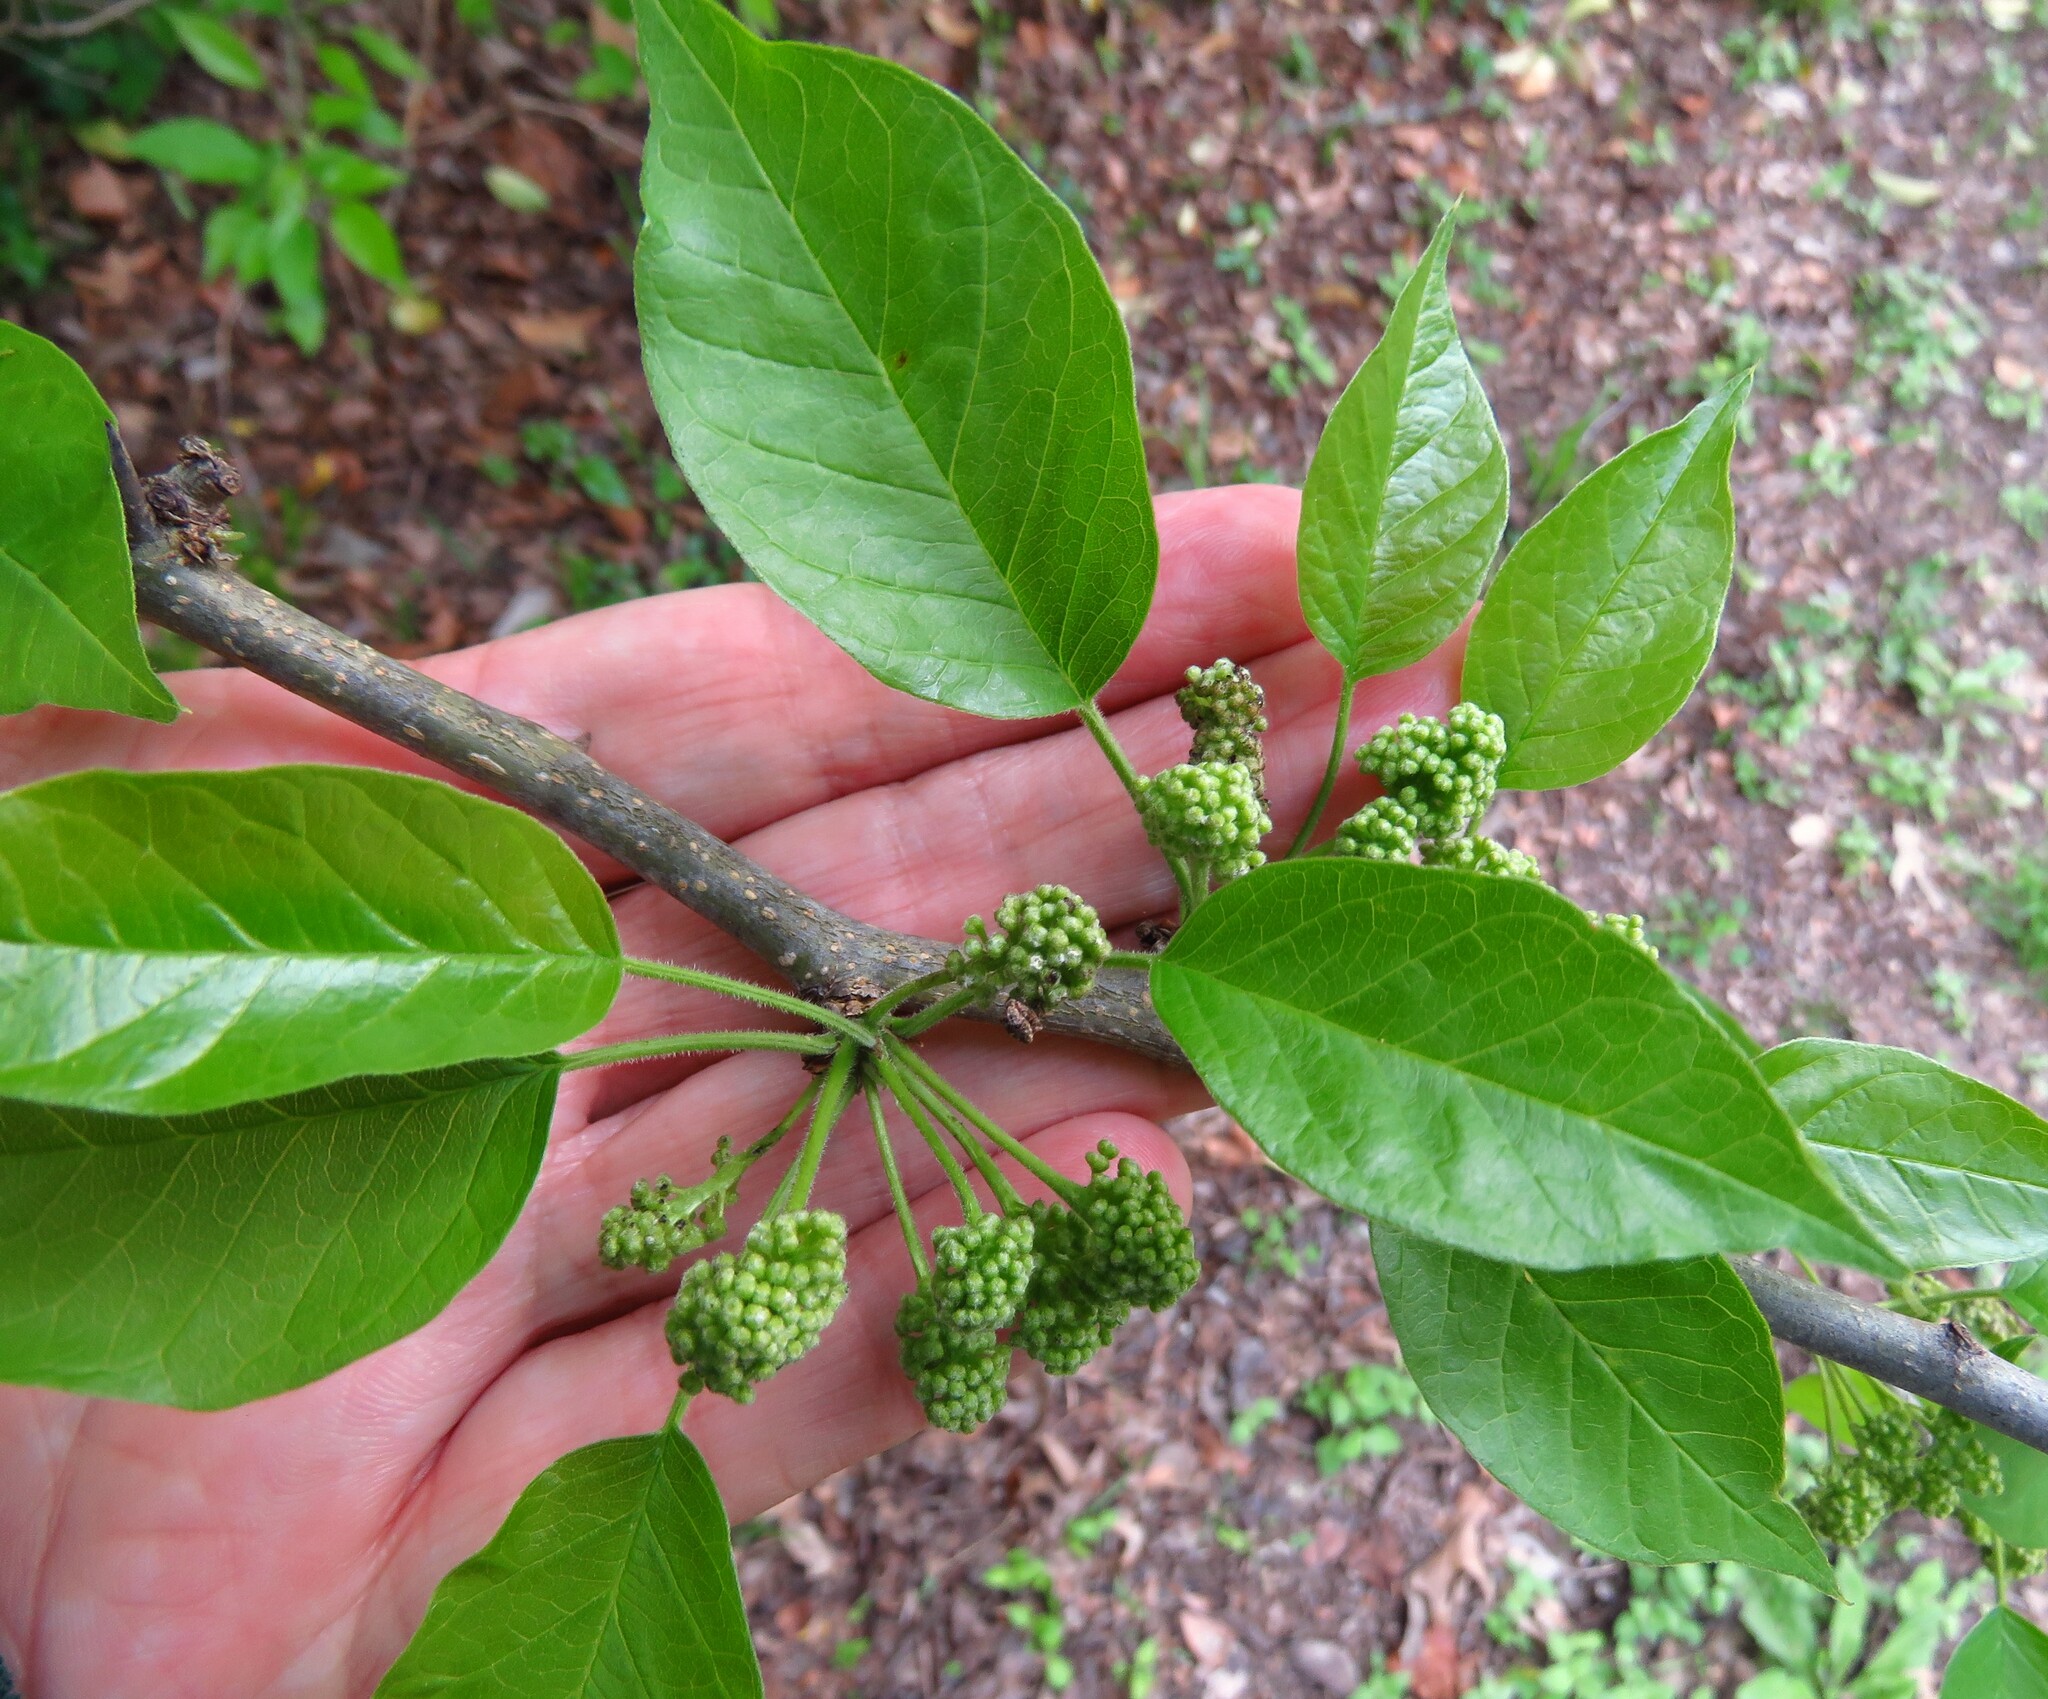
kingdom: Plantae
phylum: Tracheophyta
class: Magnoliopsida
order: Rosales
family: Moraceae
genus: Maclura
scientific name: Maclura pomifera
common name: Osage-orange
